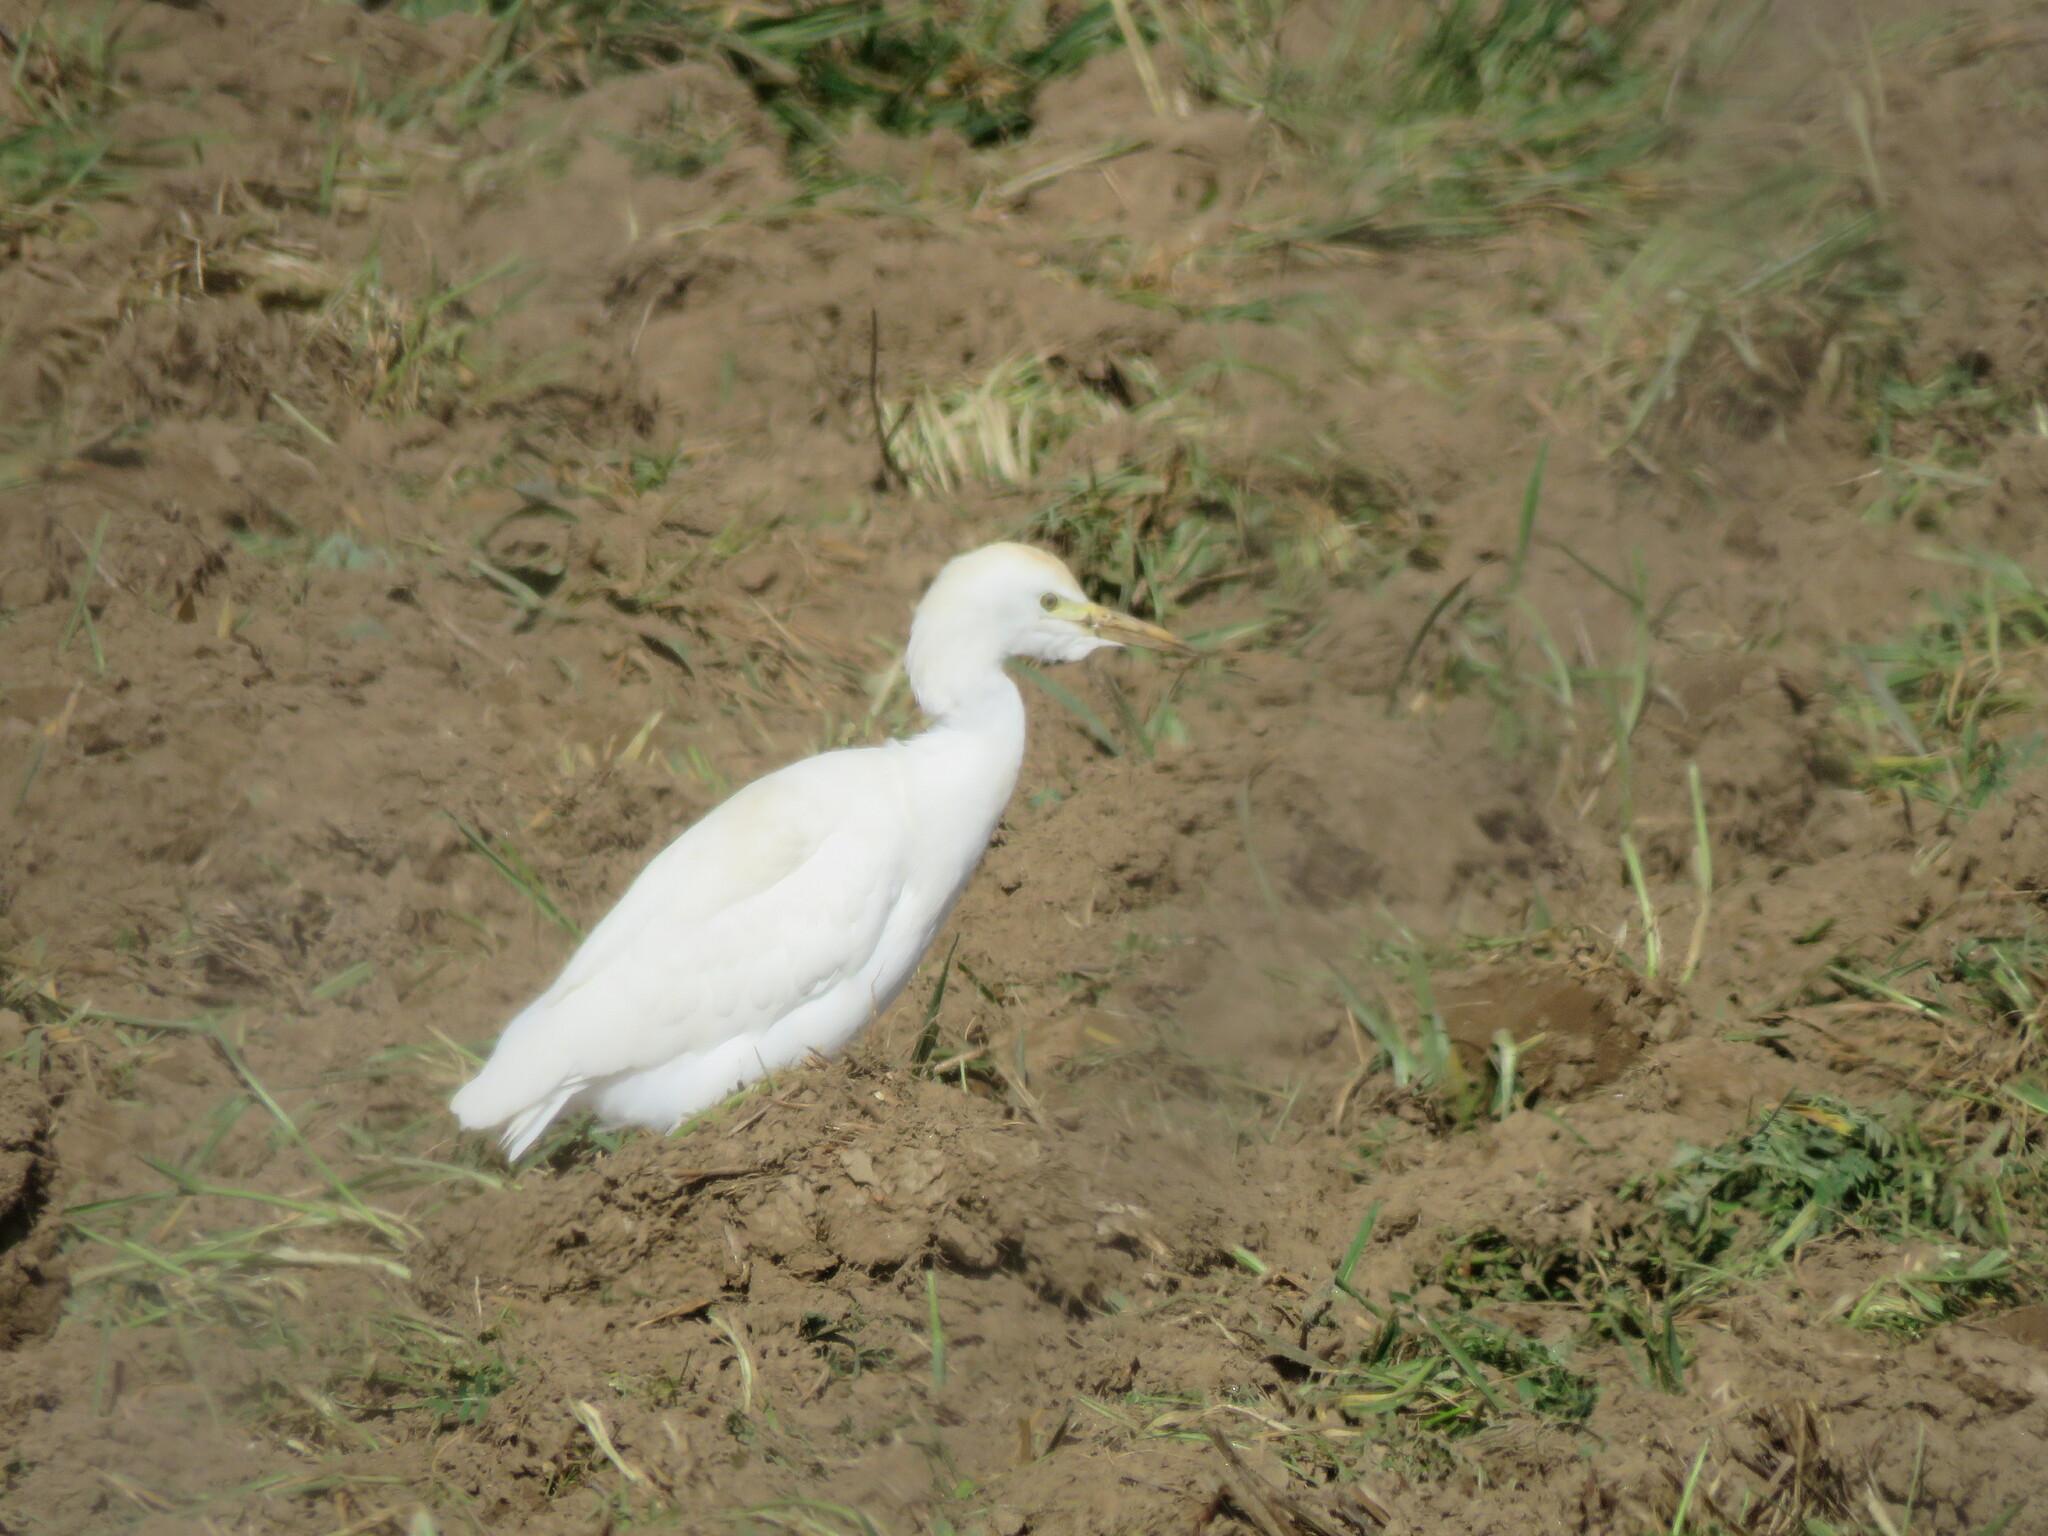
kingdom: Animalia
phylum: Chordata
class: Aves
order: Pelecaniformes
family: Ardeidae
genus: Bubulcus
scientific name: Bubulcus ibis
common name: Cattle egret
